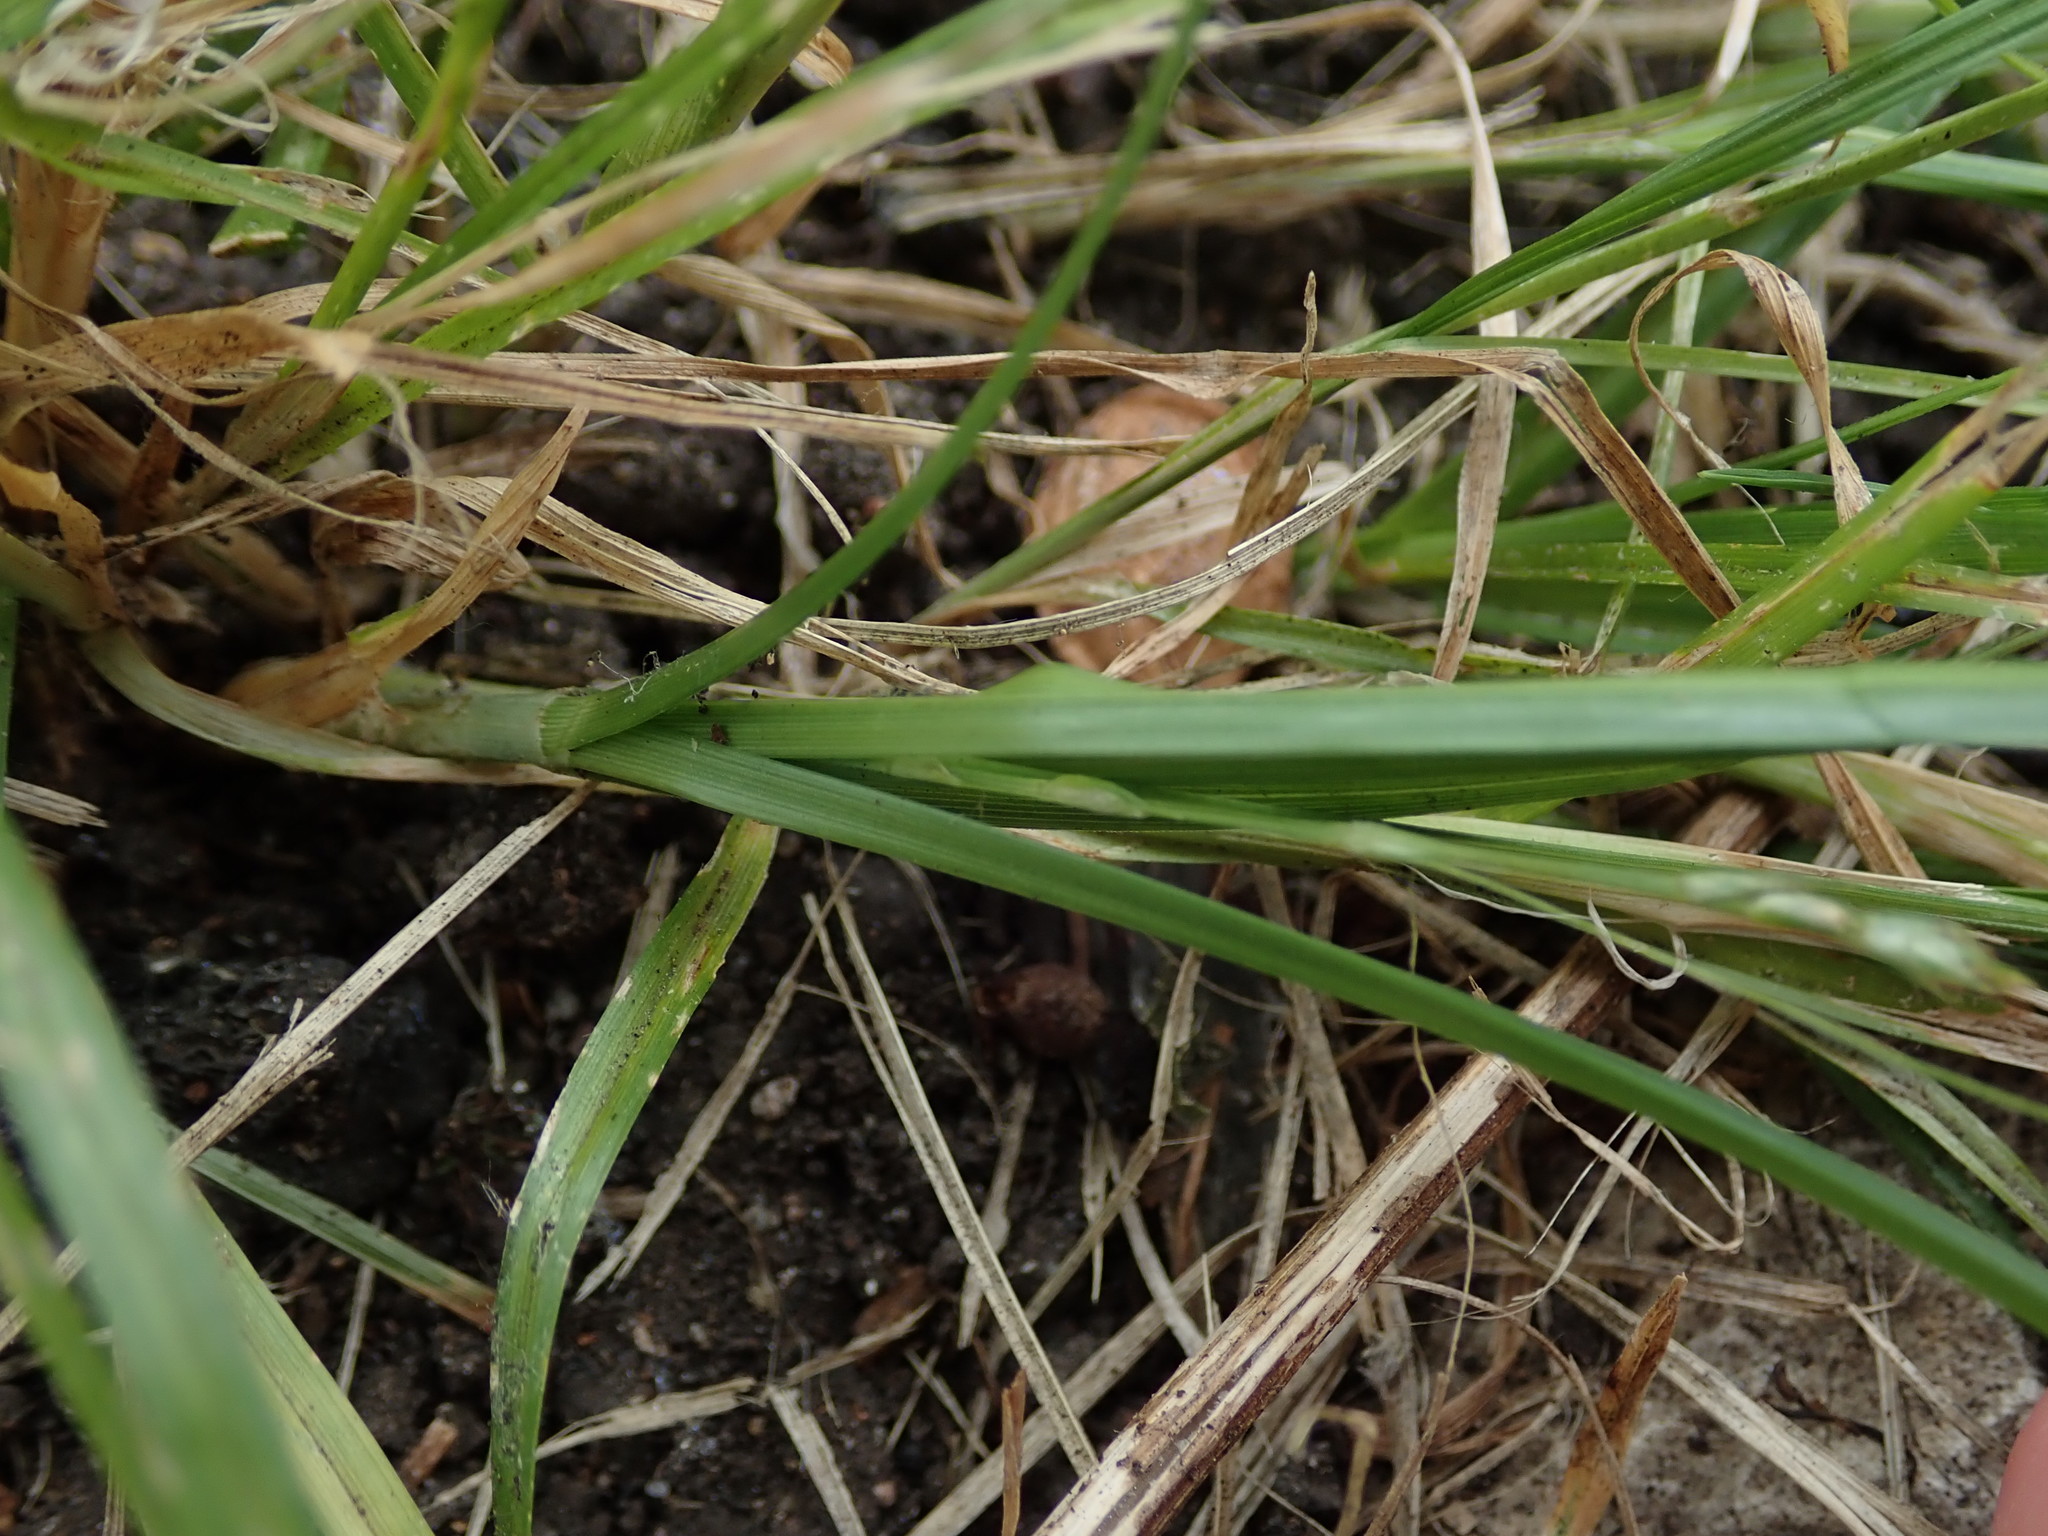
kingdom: Plantae
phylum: Tracheophyta
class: Liliopsida
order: Poales
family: Cyperaceae
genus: Carex
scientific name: Carex divulsa
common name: Grassland sedge
